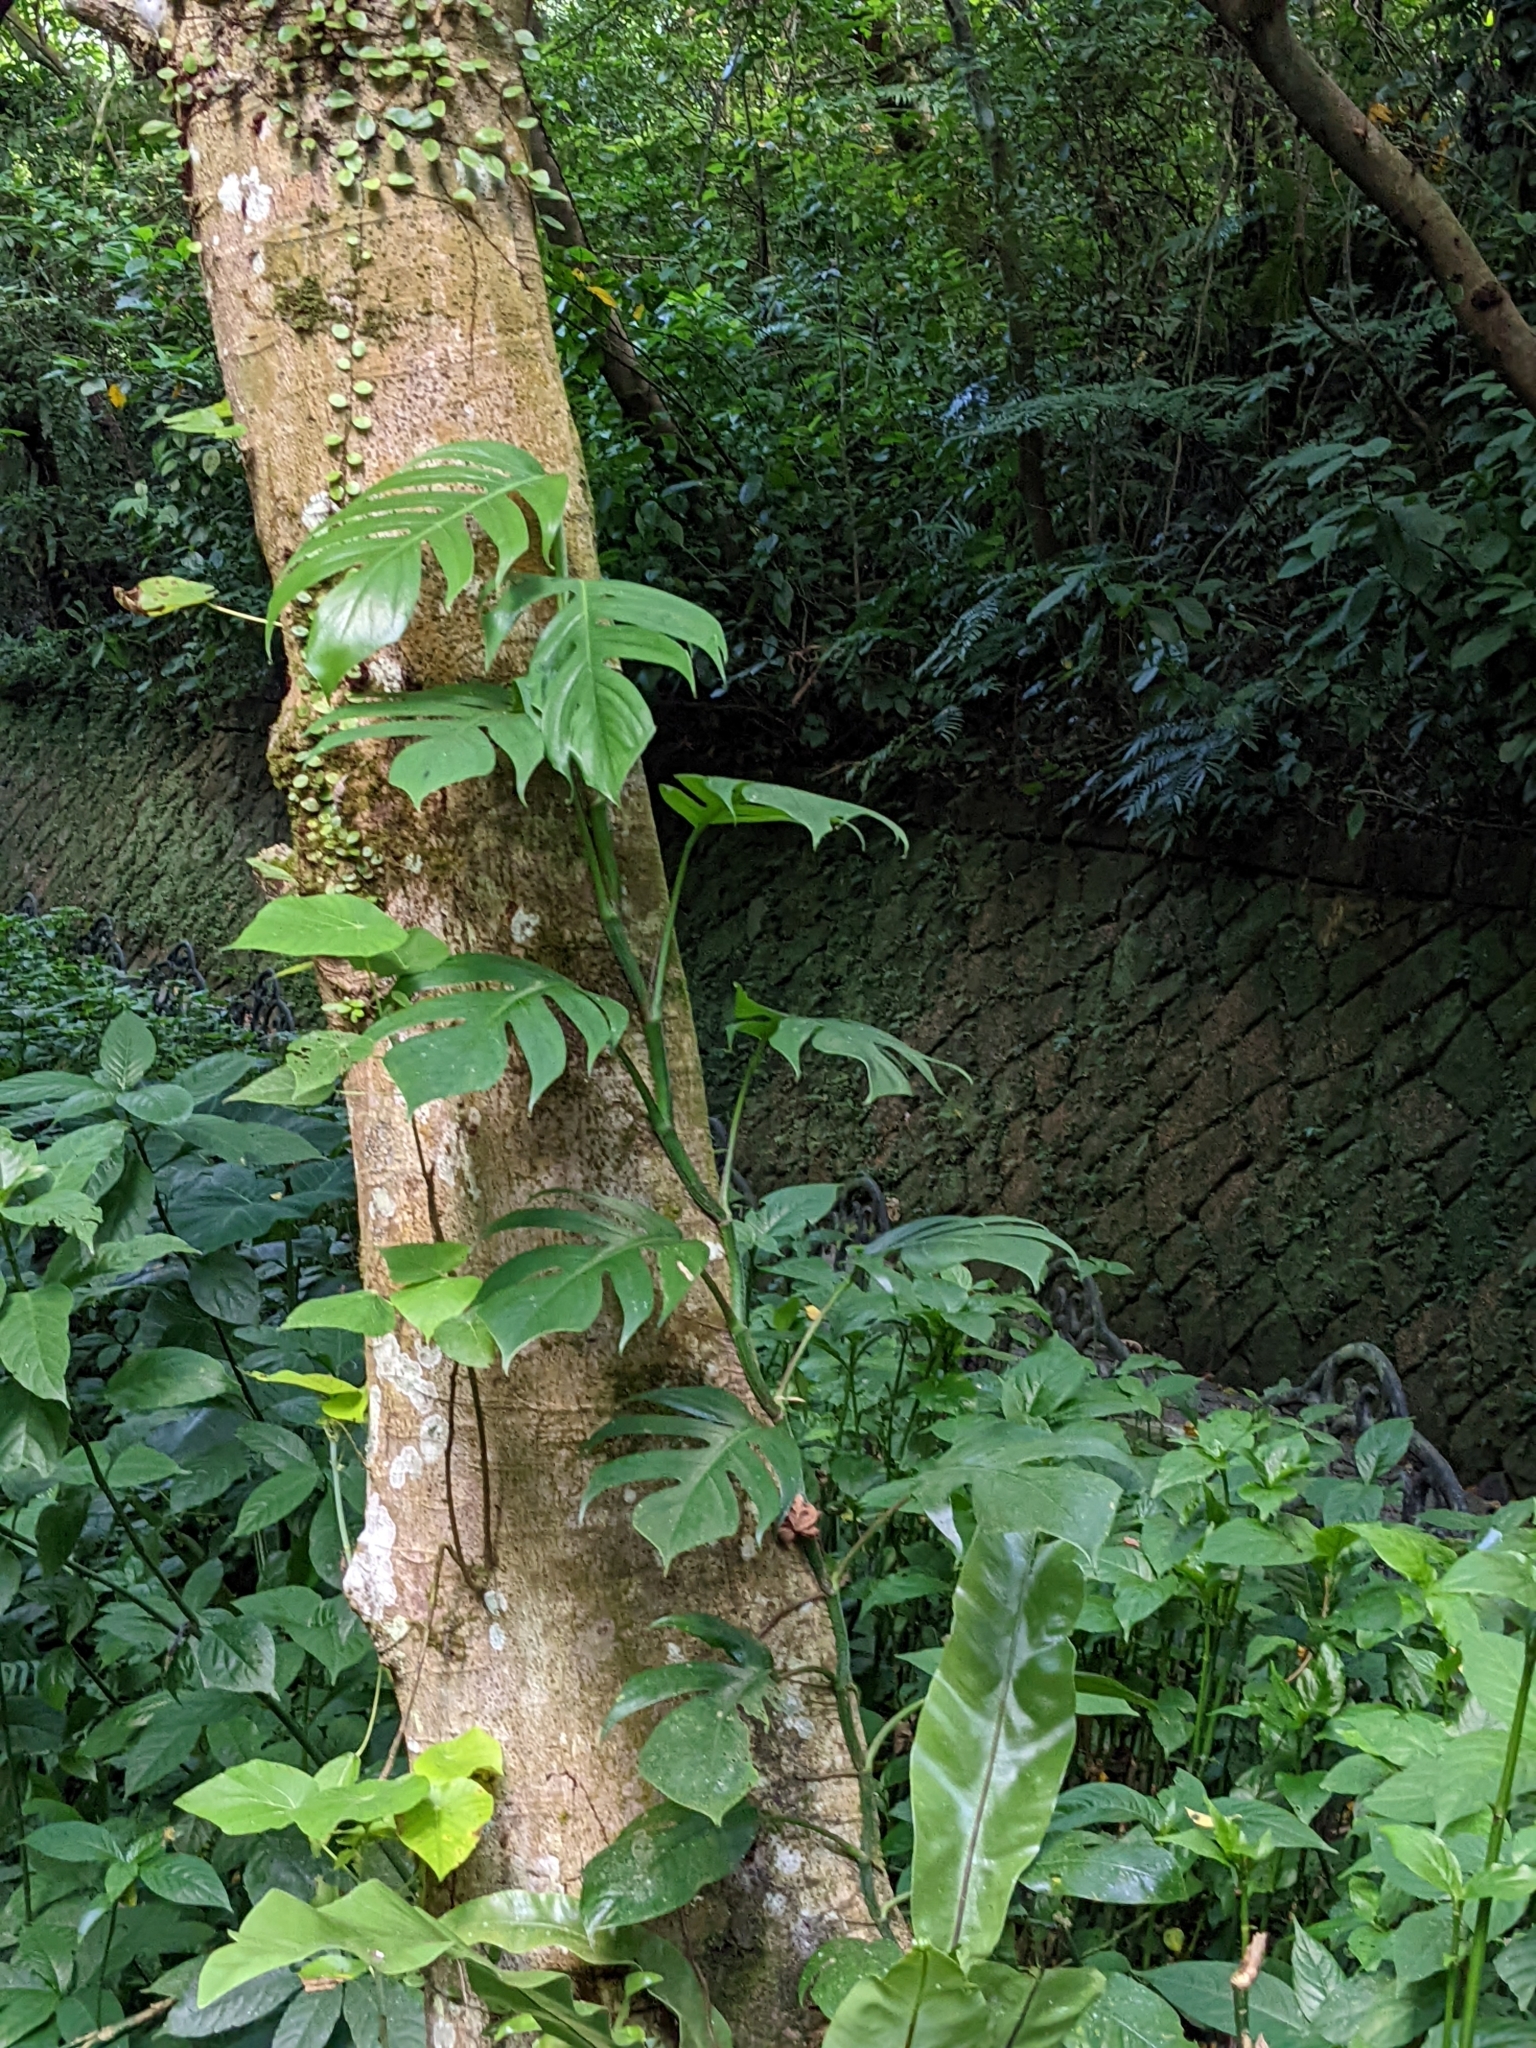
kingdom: Plantae
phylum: Tracheophyta
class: Liliopsida
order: Alismatales
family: Araceae
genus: Epipremnum
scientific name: Epipremnum pinnatum
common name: Centipede tongavine
